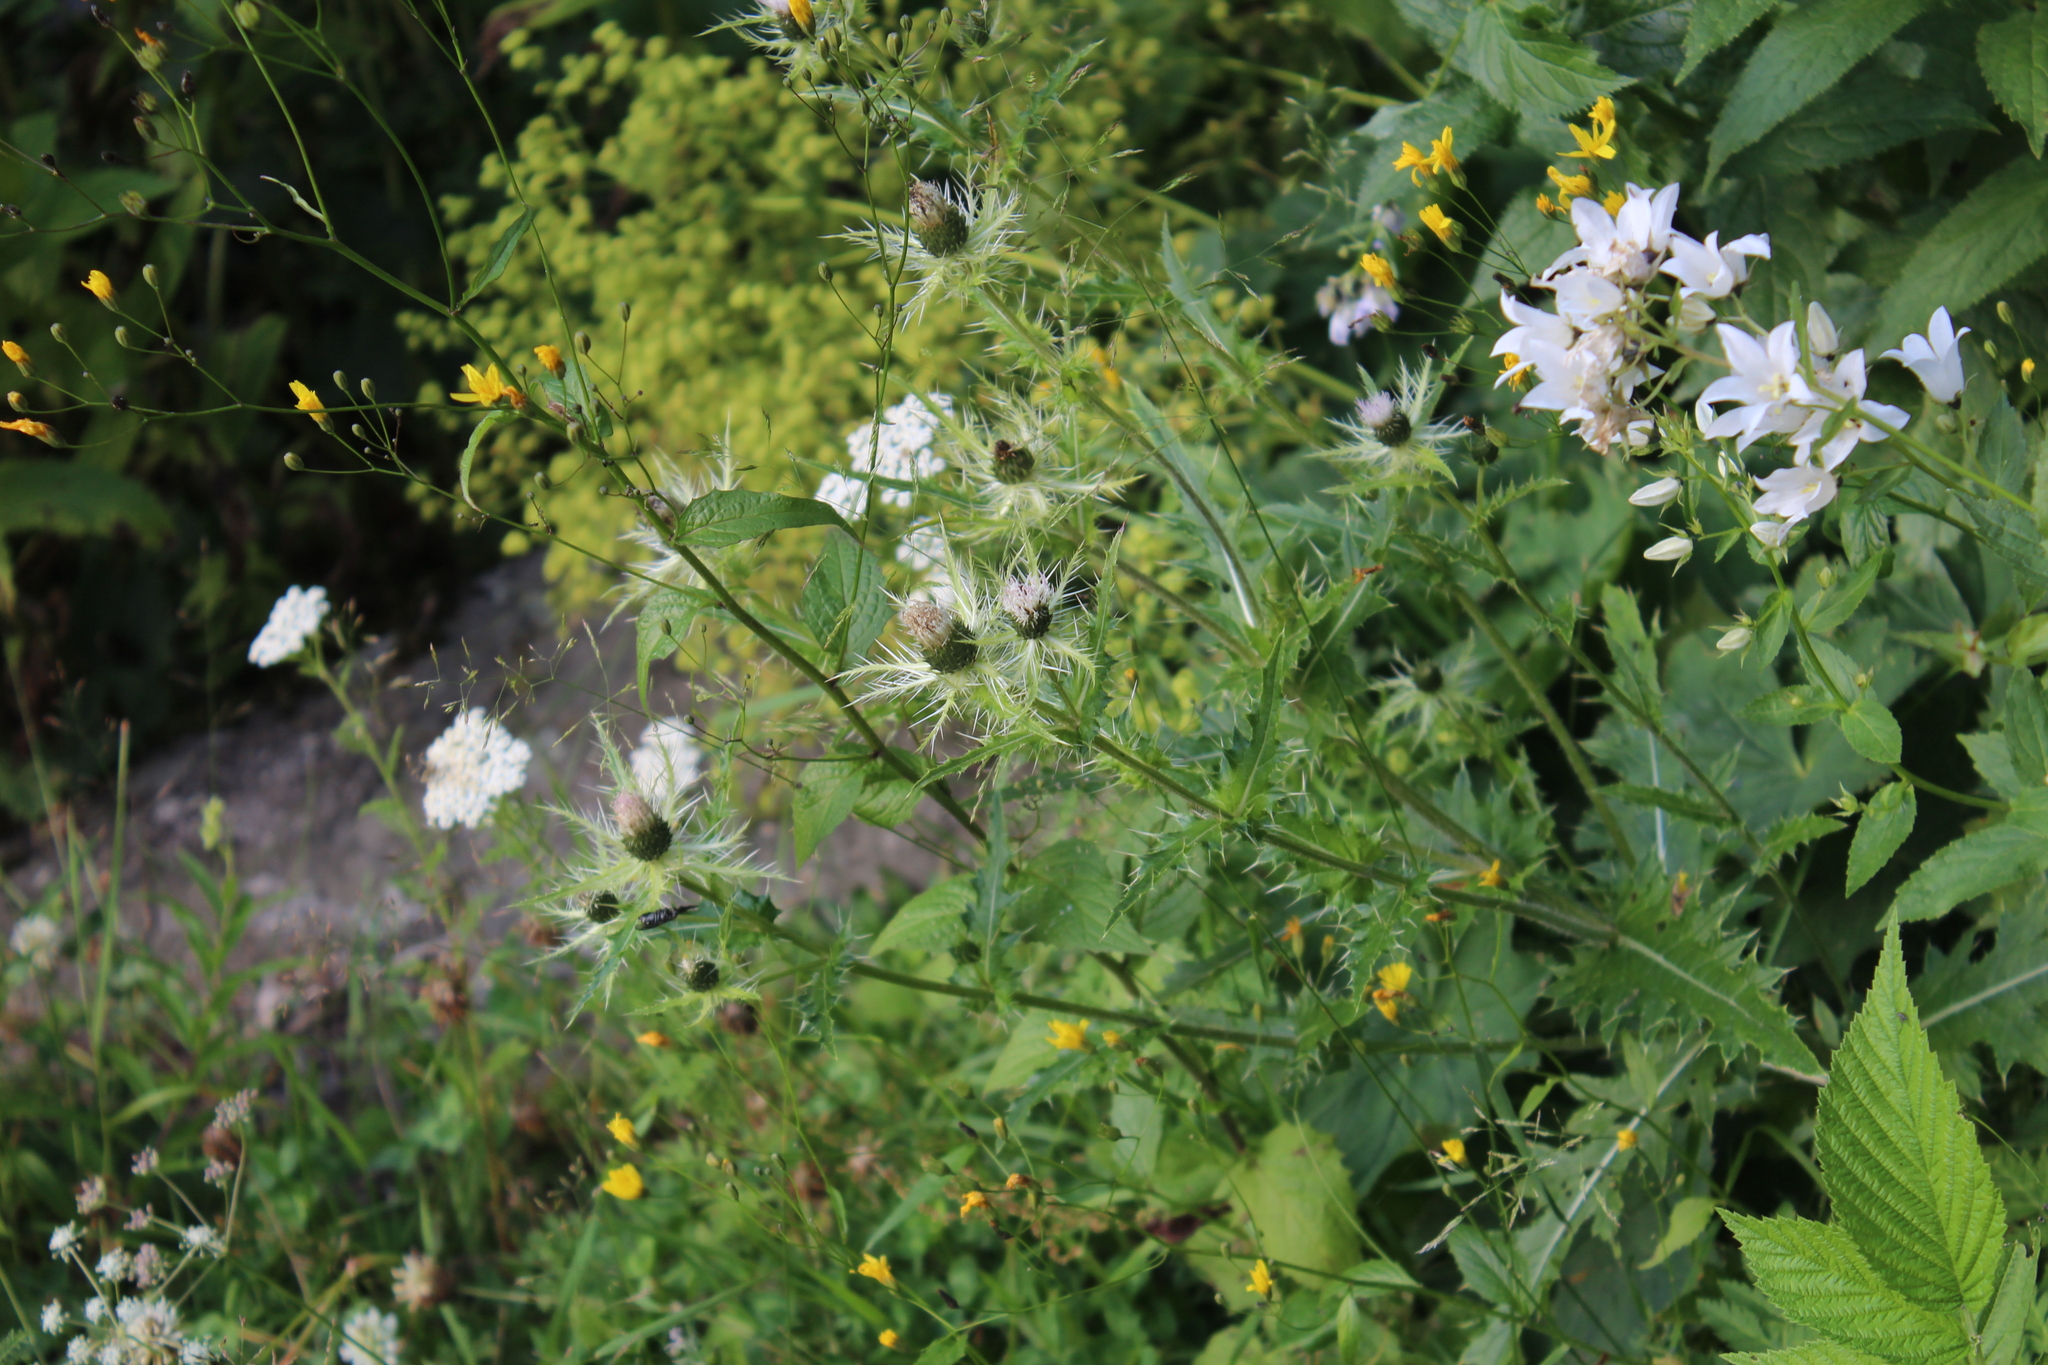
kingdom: Plantae
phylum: Tracheophyta
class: Magnoliopsida
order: Asterales
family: Asteraceae
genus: Cirsium
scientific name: Cirsium obvallatum
